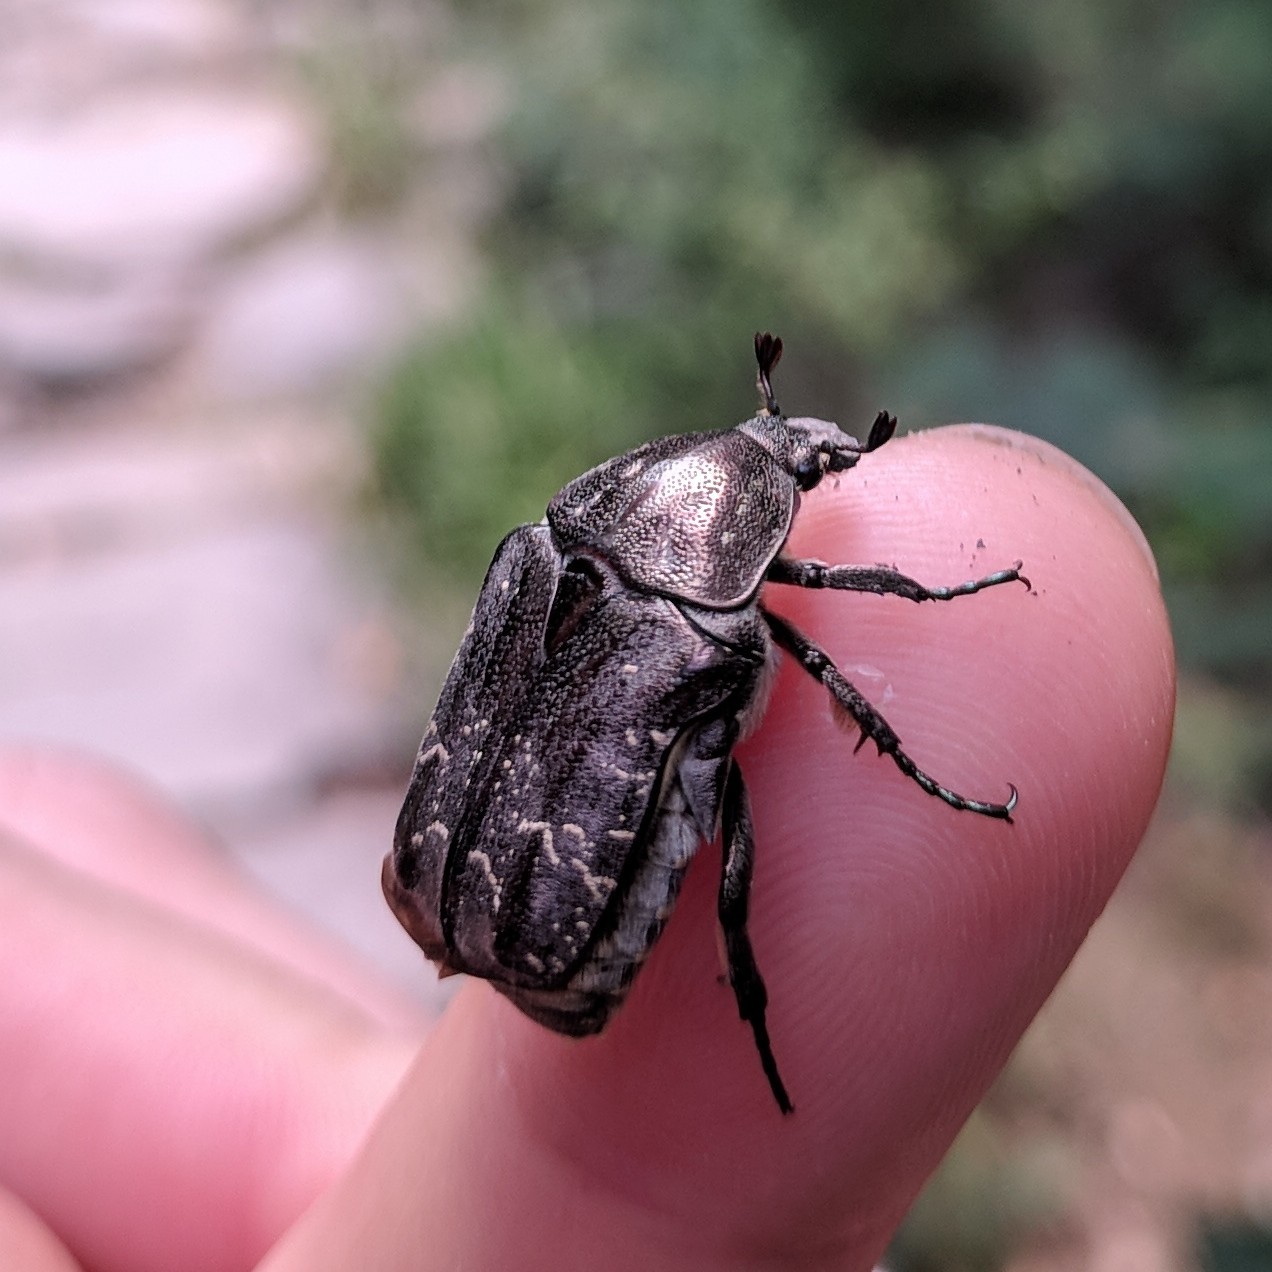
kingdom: Animalia
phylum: Arthropoda
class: Insecta
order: Coleoptera
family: Scarabaeidae
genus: Protaetia
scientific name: Protaetia brevitarsis
